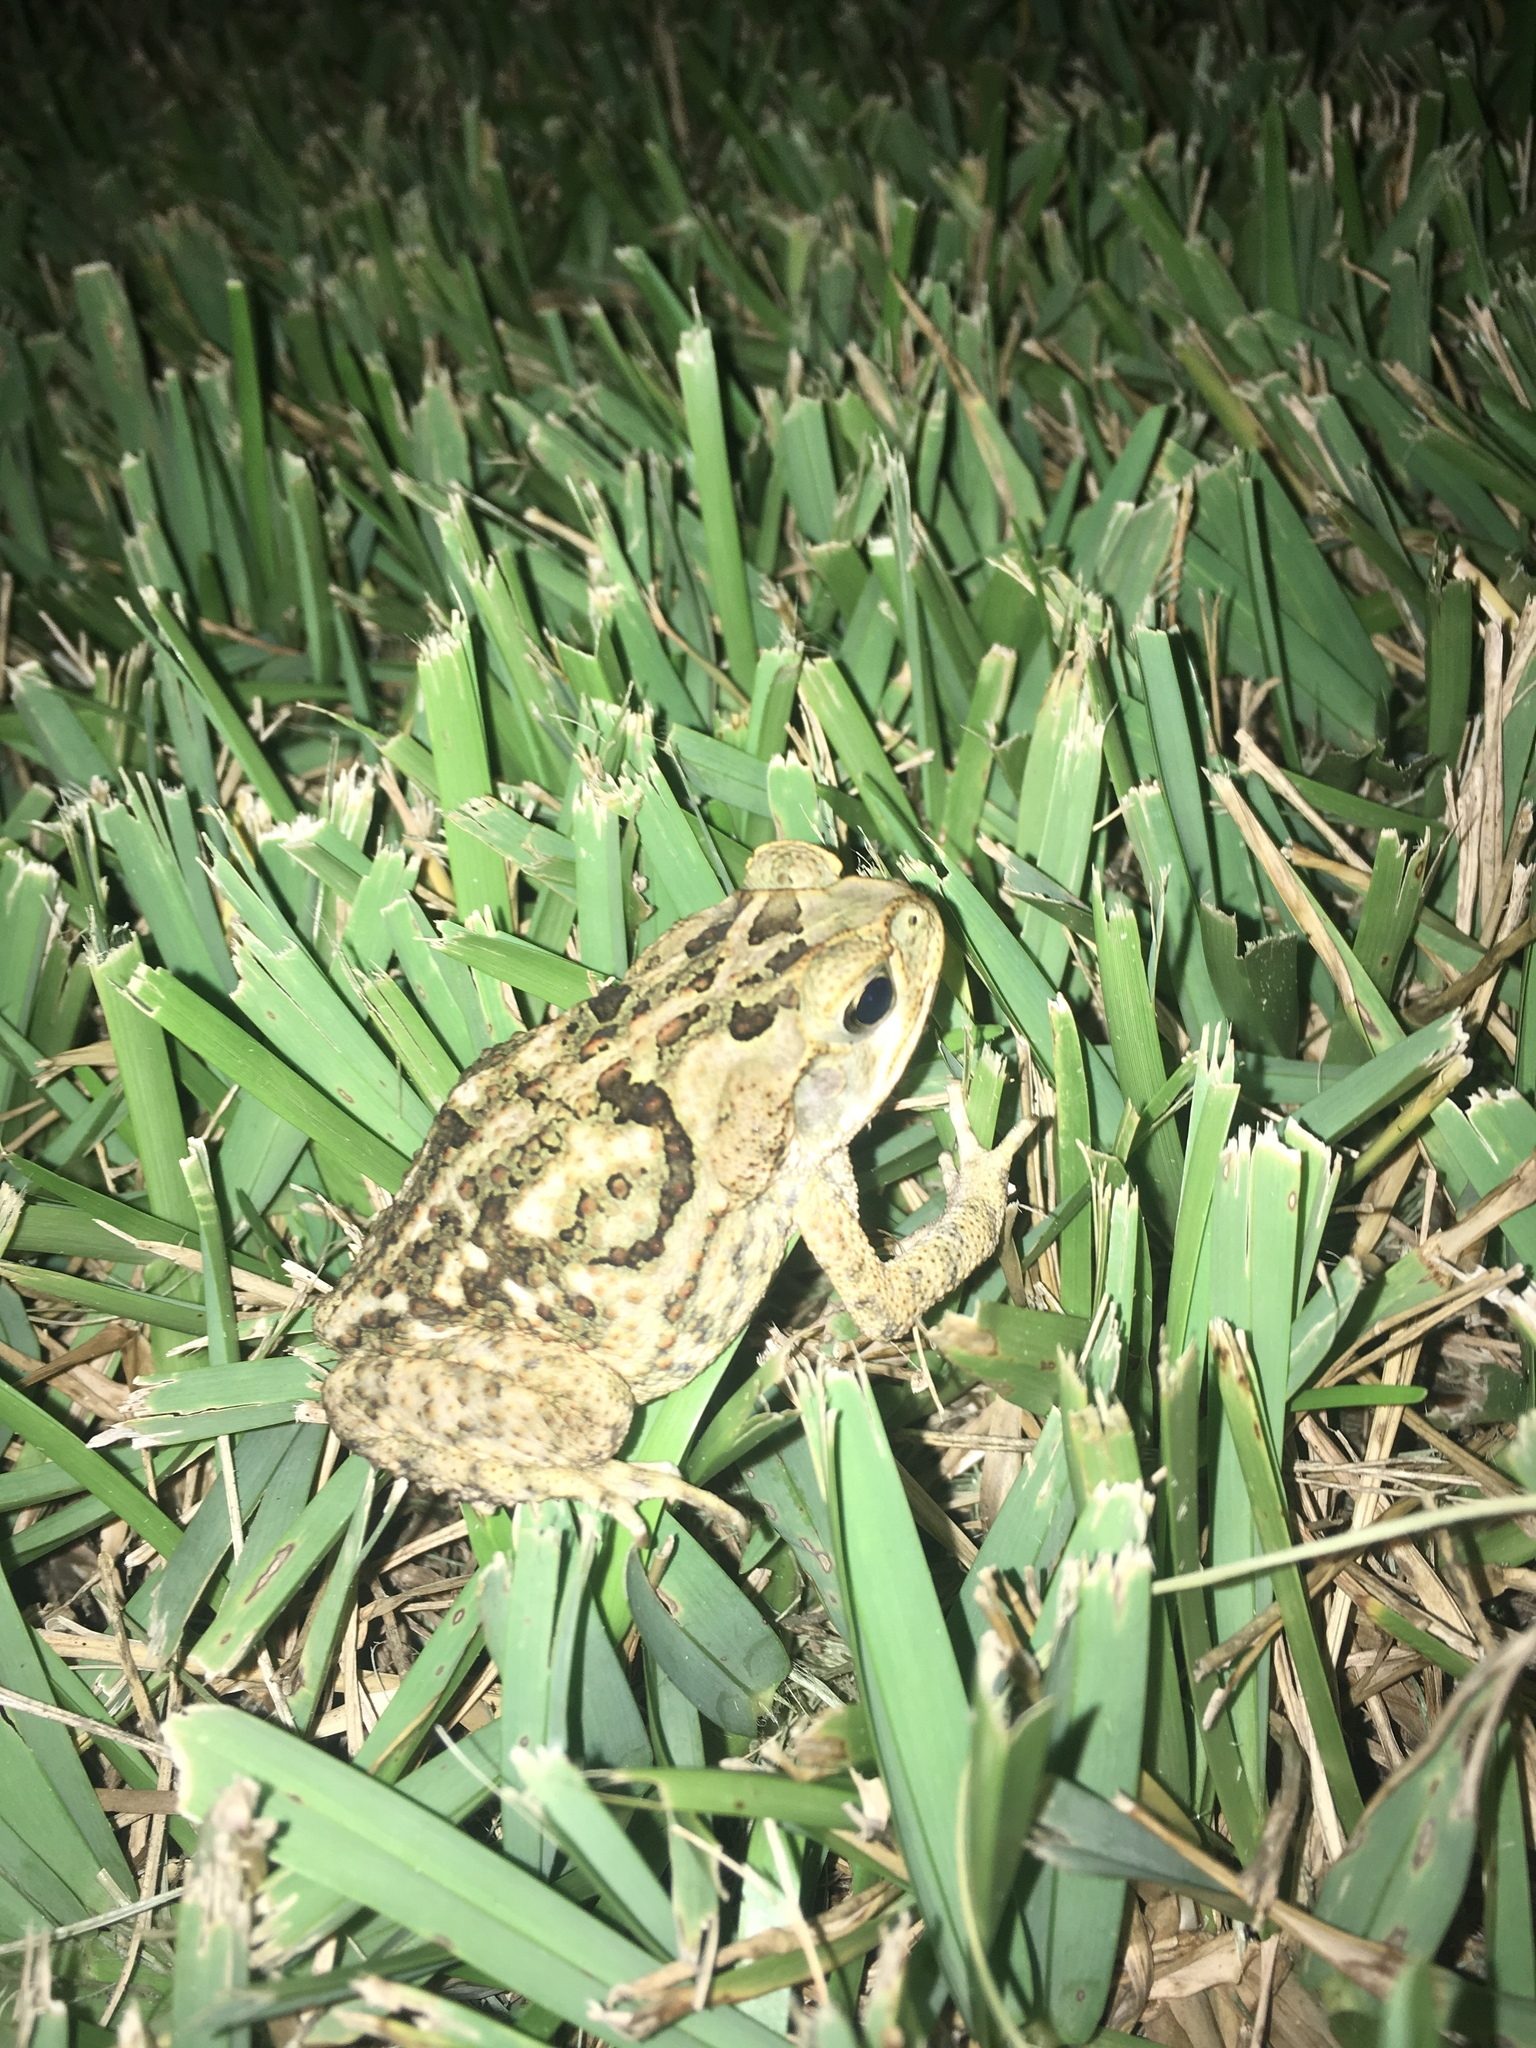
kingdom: Animalia
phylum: Chordata
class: Amphibia
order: Anura
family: Bufonidae
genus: Rhinella
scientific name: Rhinella marina
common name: Cane toad
